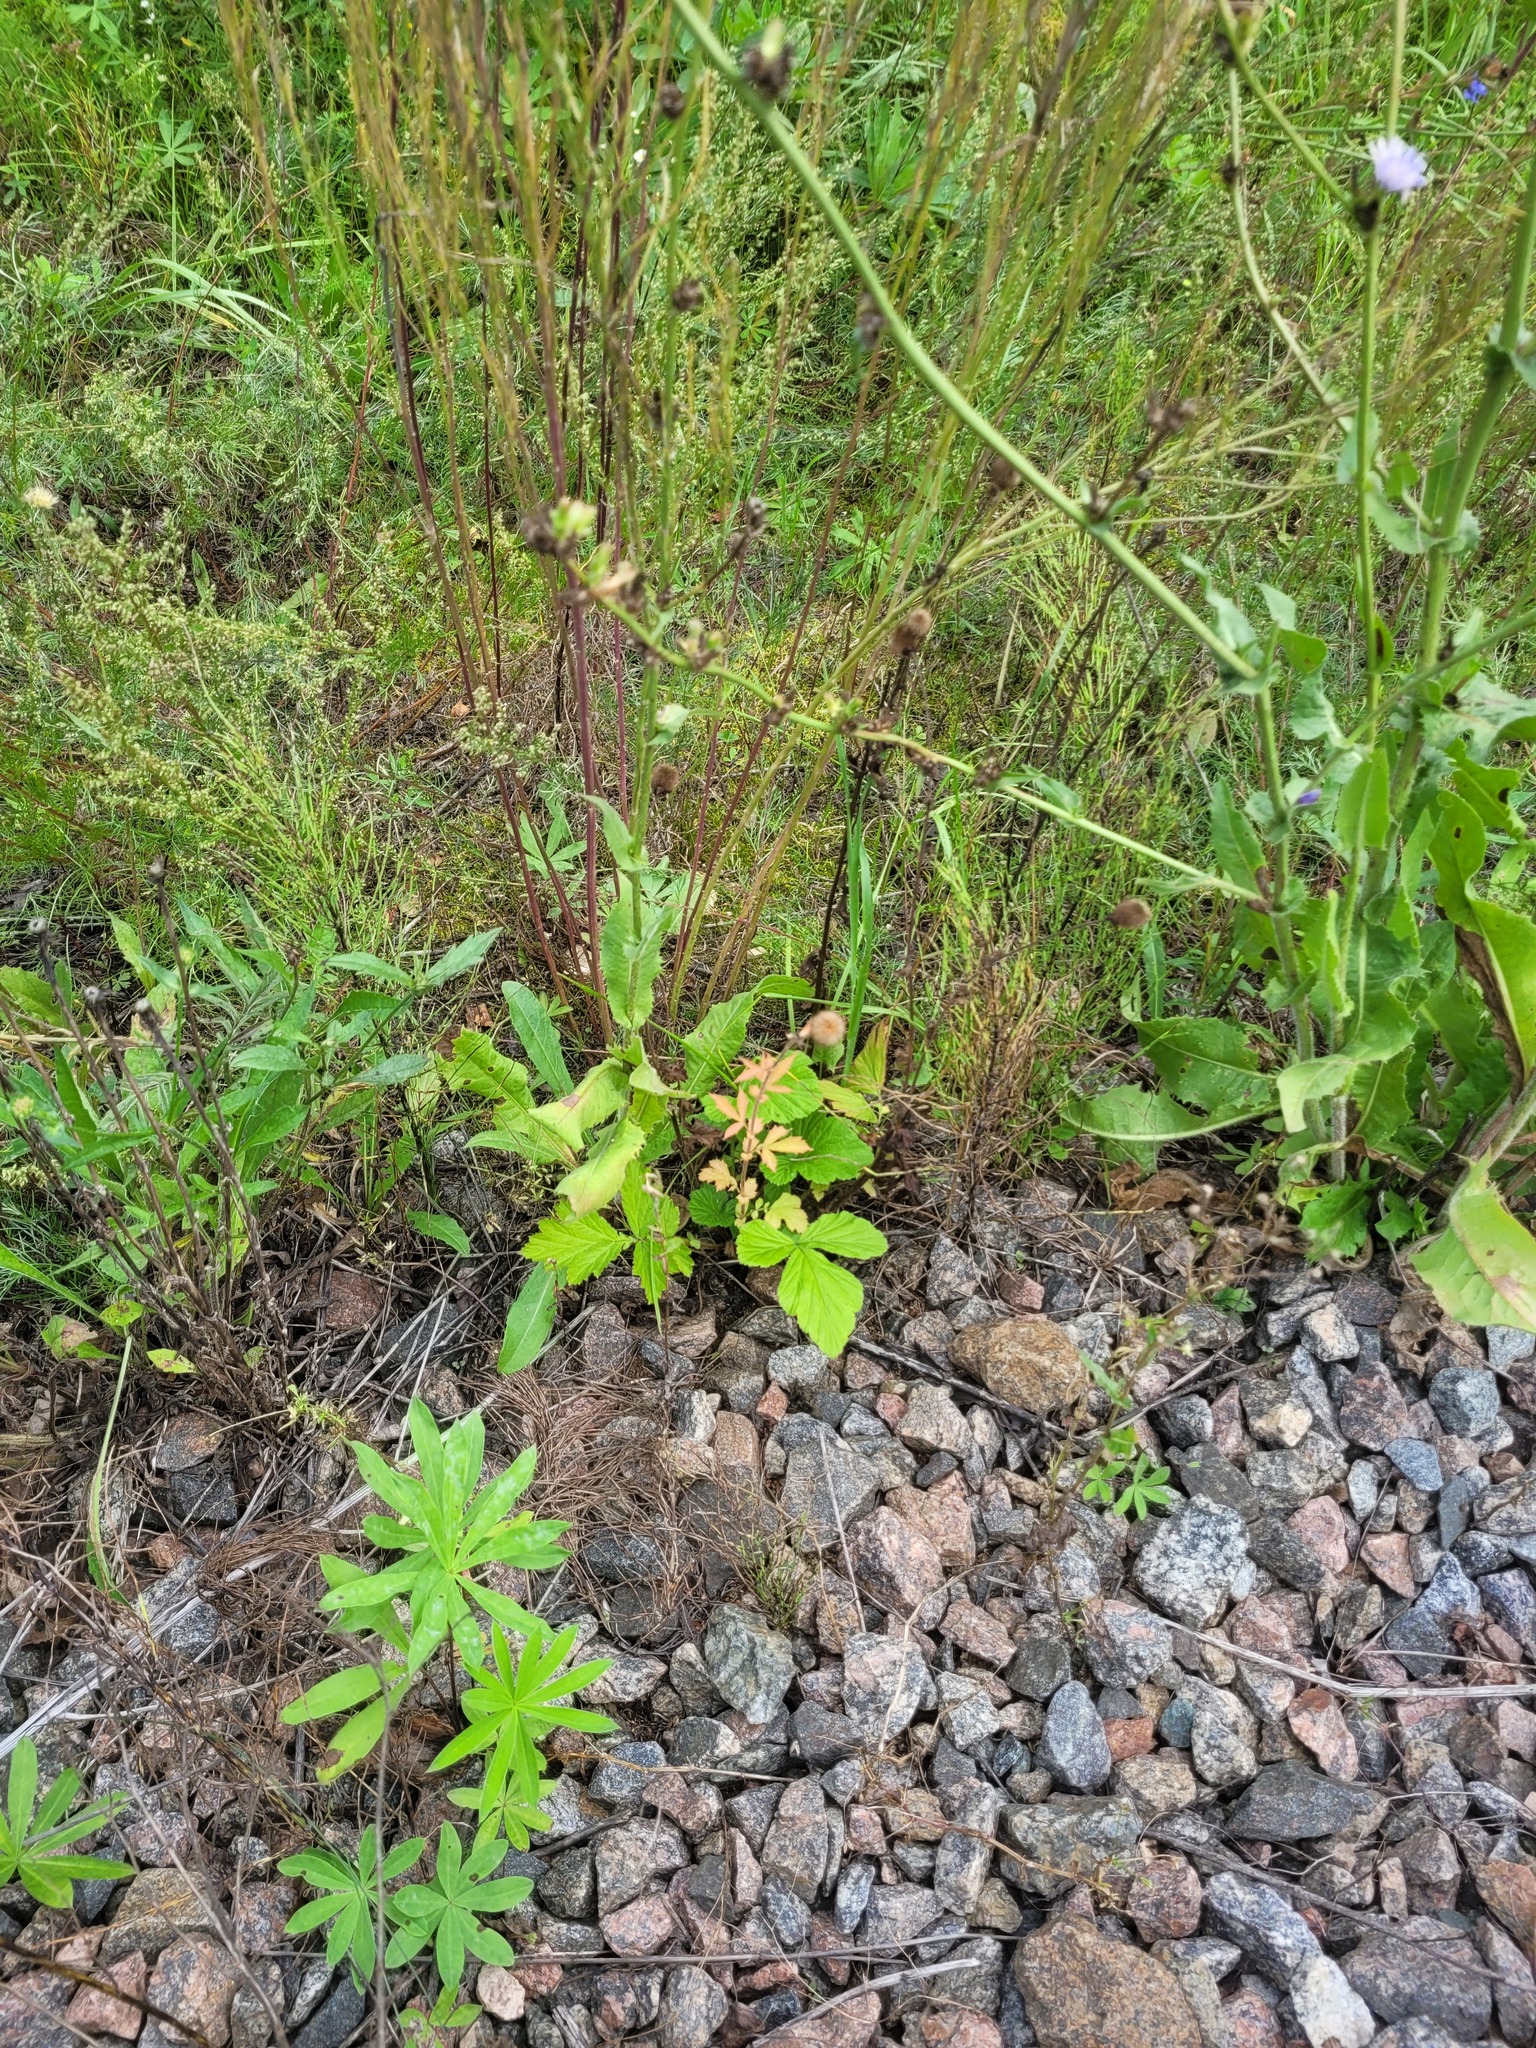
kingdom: Plantae
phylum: Tracheophyta
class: Magnoliopsida
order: Rosales
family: Rosaceae
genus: Geum
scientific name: Geum aleppicum
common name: Yellow avens
